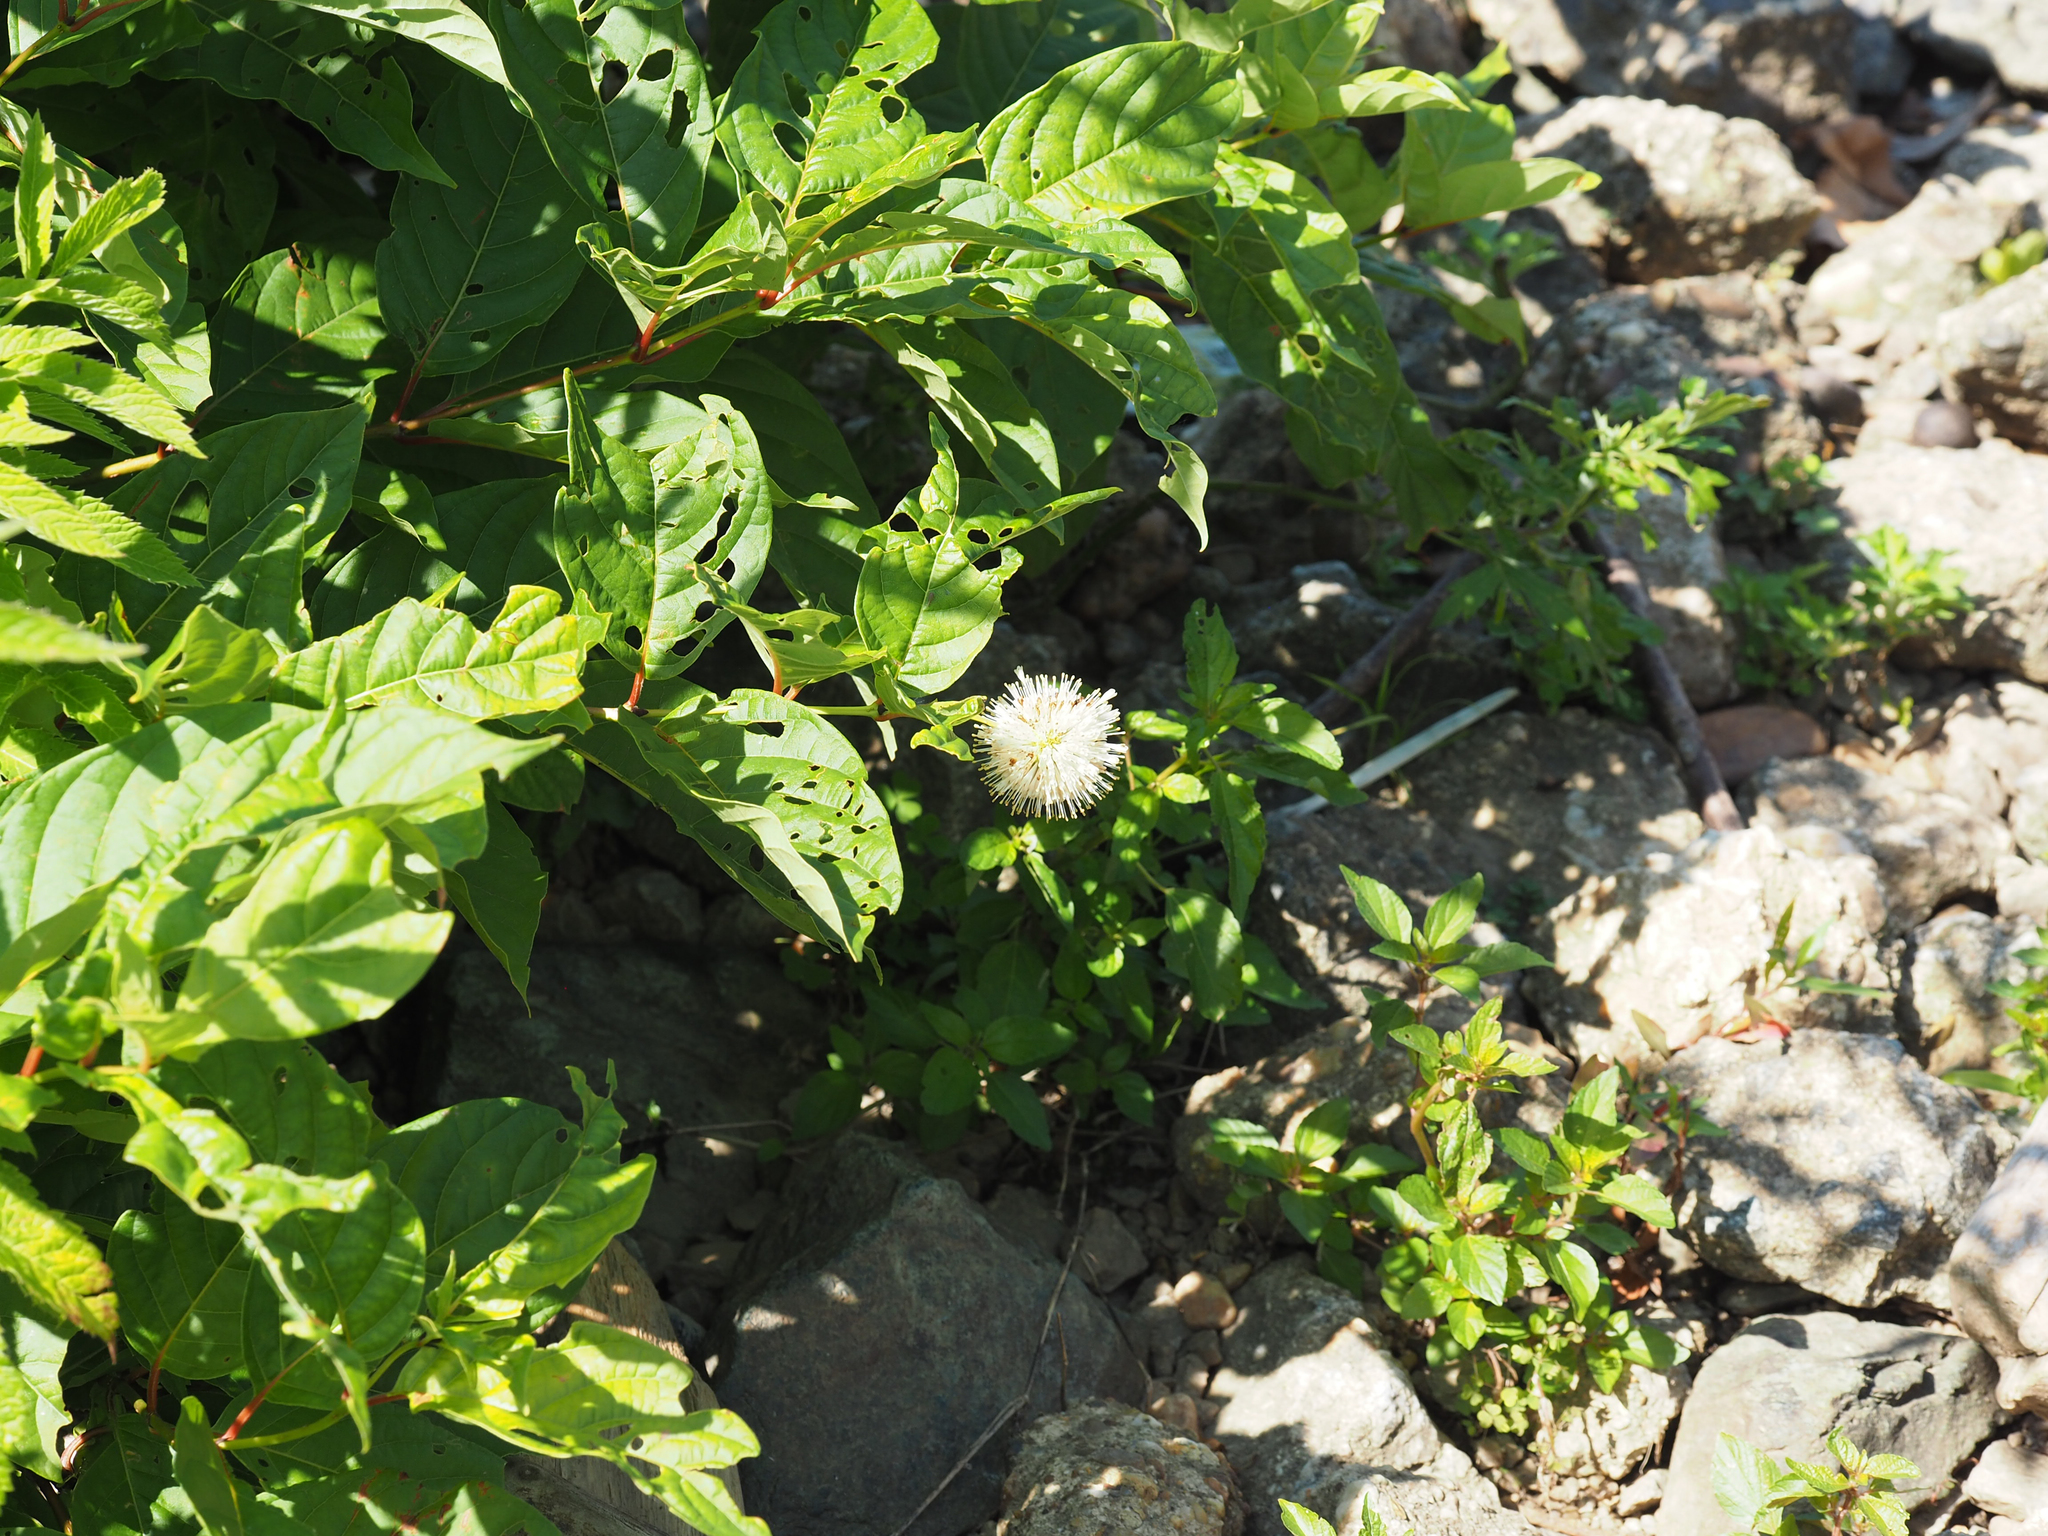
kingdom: Plantae
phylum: Tracheophyta
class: Magnoliopsida
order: Gentianales
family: Rubiaceae
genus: Cephalanthus
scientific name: Cephalanthus occidentalis
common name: Button-willow
